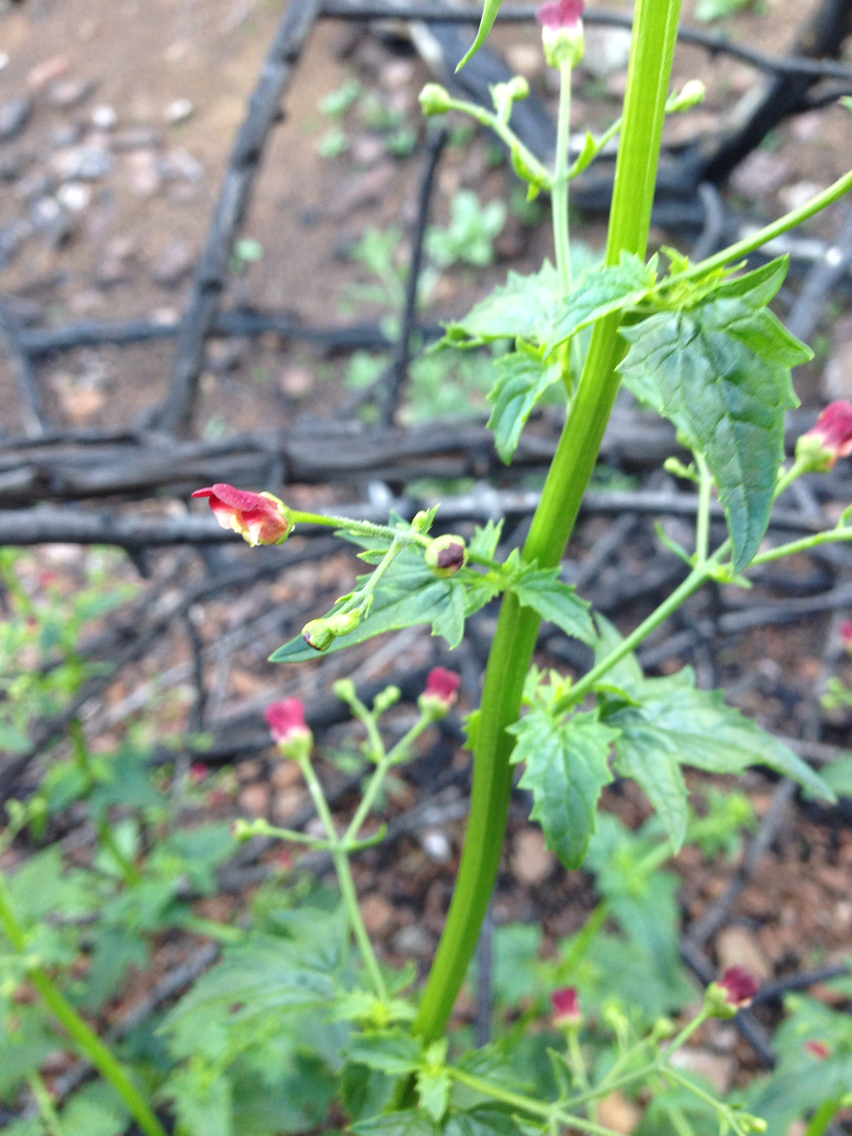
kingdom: Plantae
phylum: Tracheophyta
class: Magnoliopsida
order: Lamiales
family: Scrophulariaceae
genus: Scrophularia
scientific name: Scrophularia californica
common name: California figwort
